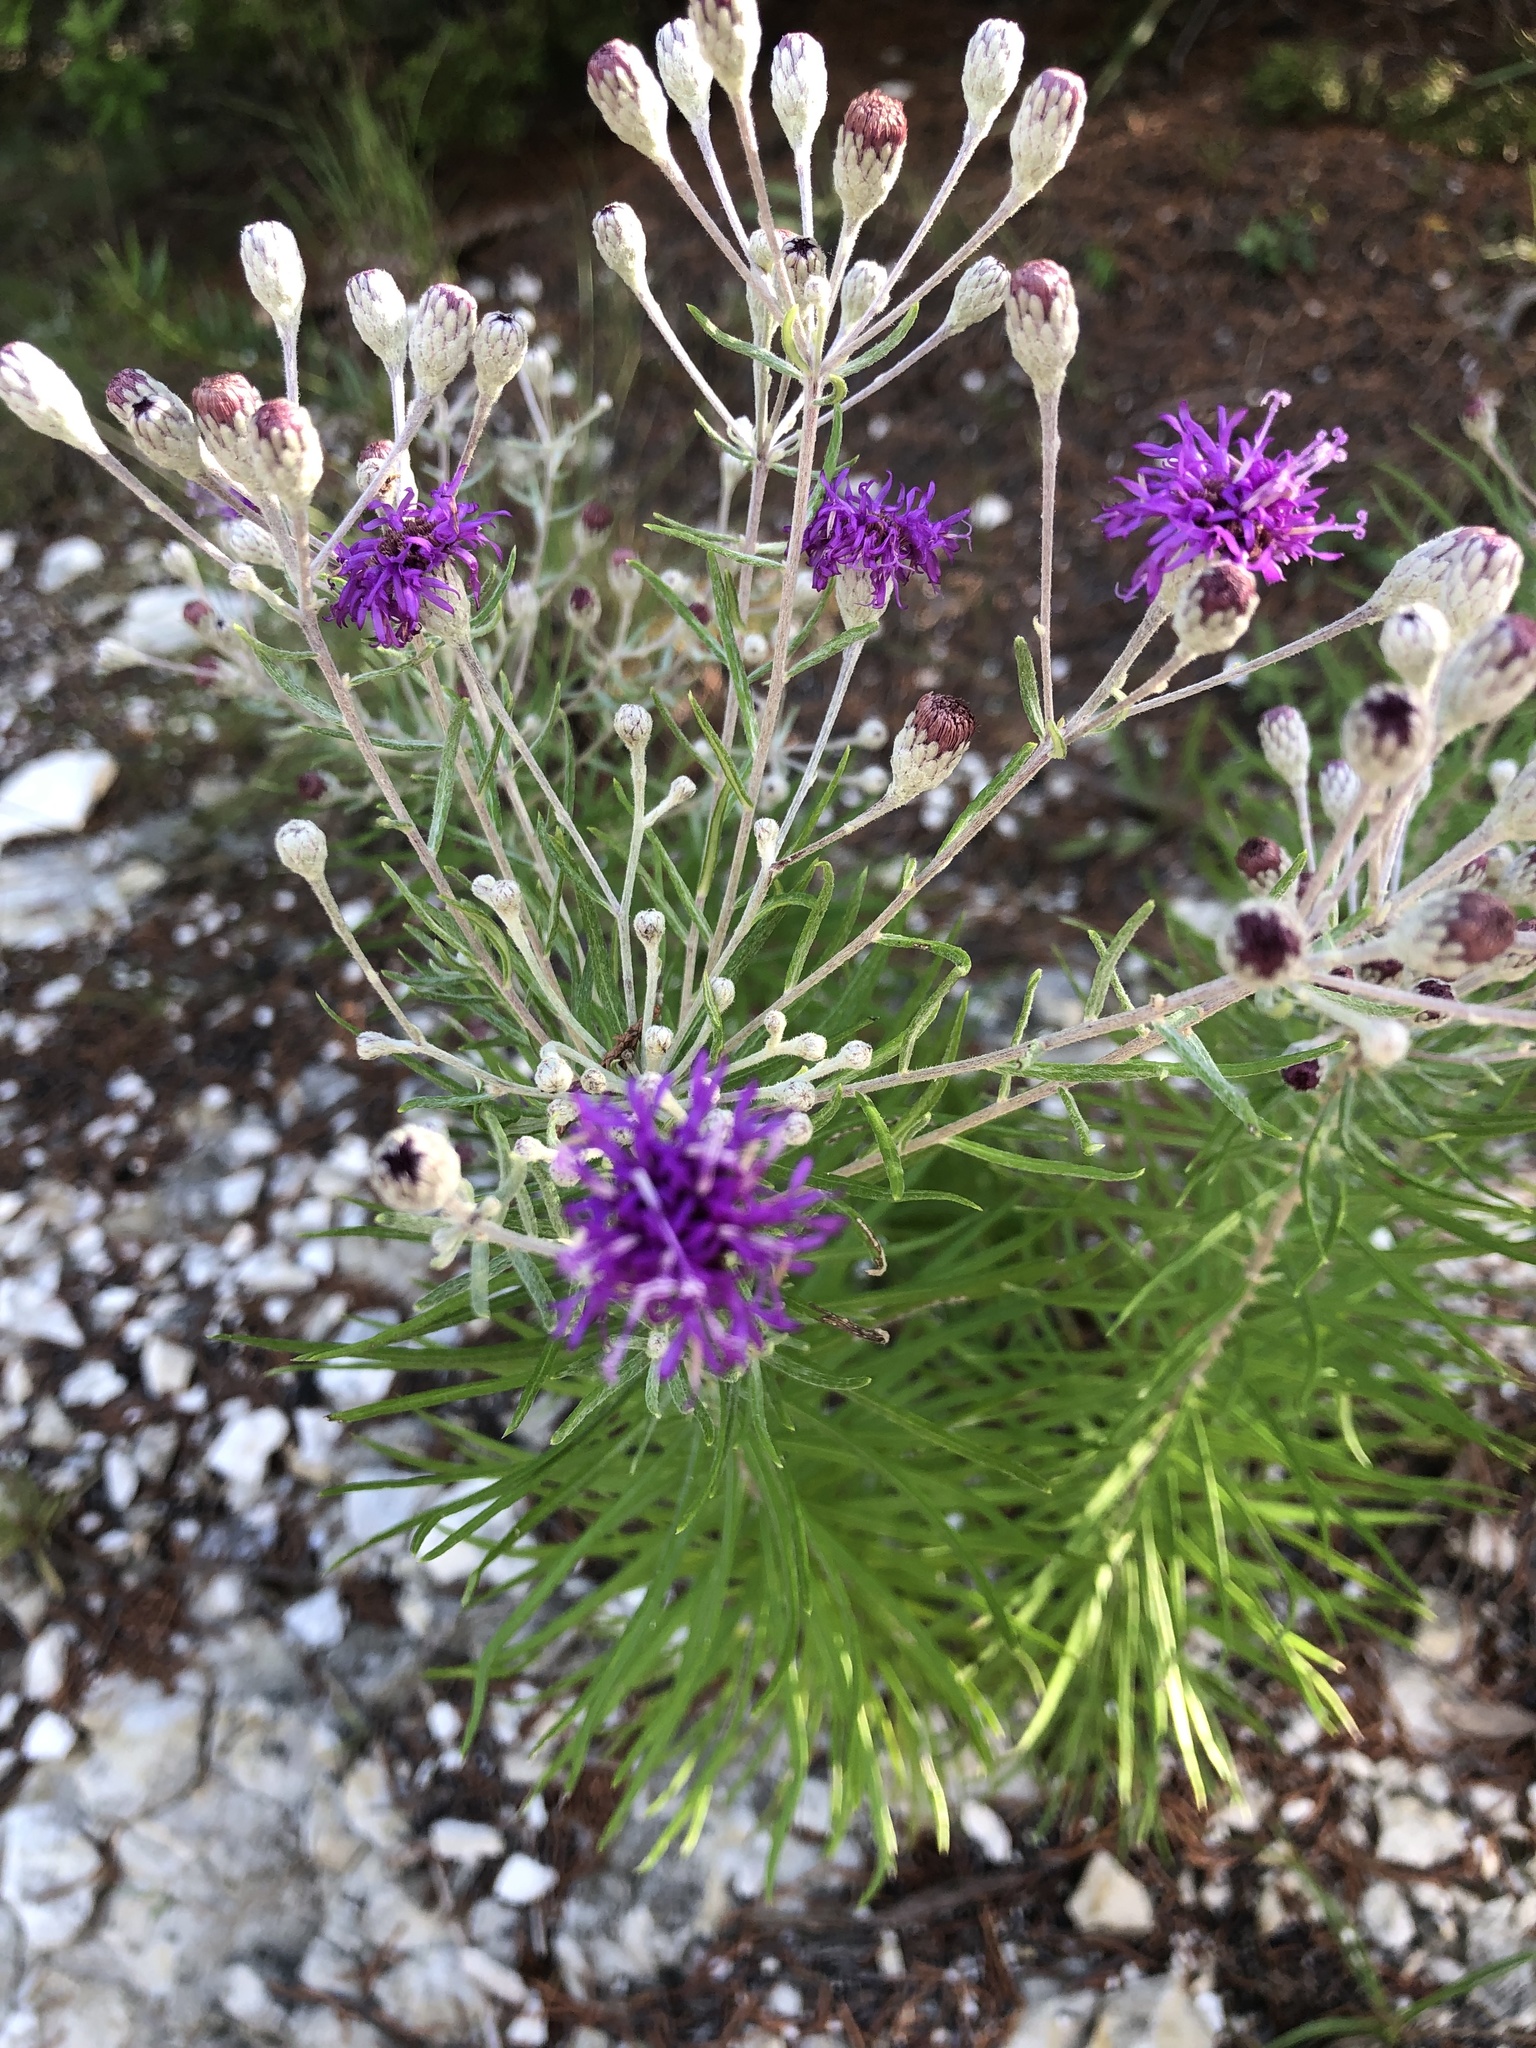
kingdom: Plantae
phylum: Tracheophyta
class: Magnoliopsida
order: Asterales
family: Asteraceae
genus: Vernonia
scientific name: Vernonia lindheimeri
